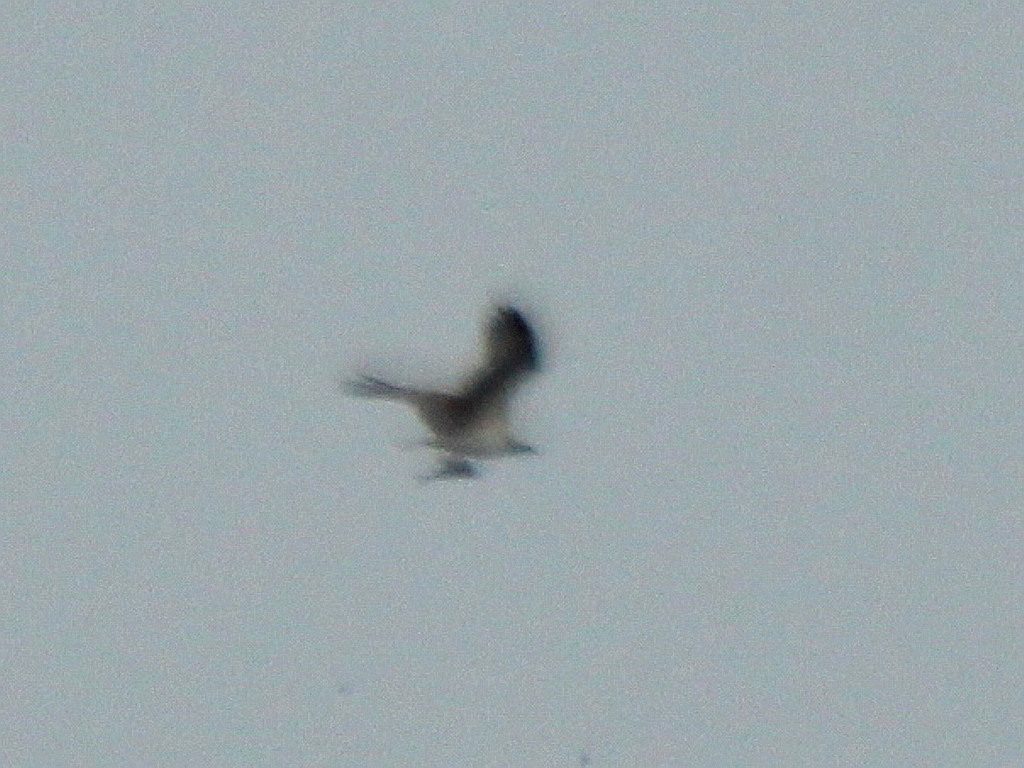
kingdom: Animalia
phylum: Chordata
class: Aves
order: Accipitriformes
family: Pandionidae
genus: Pandion
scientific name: Pandion haliaetus
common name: Osprey
